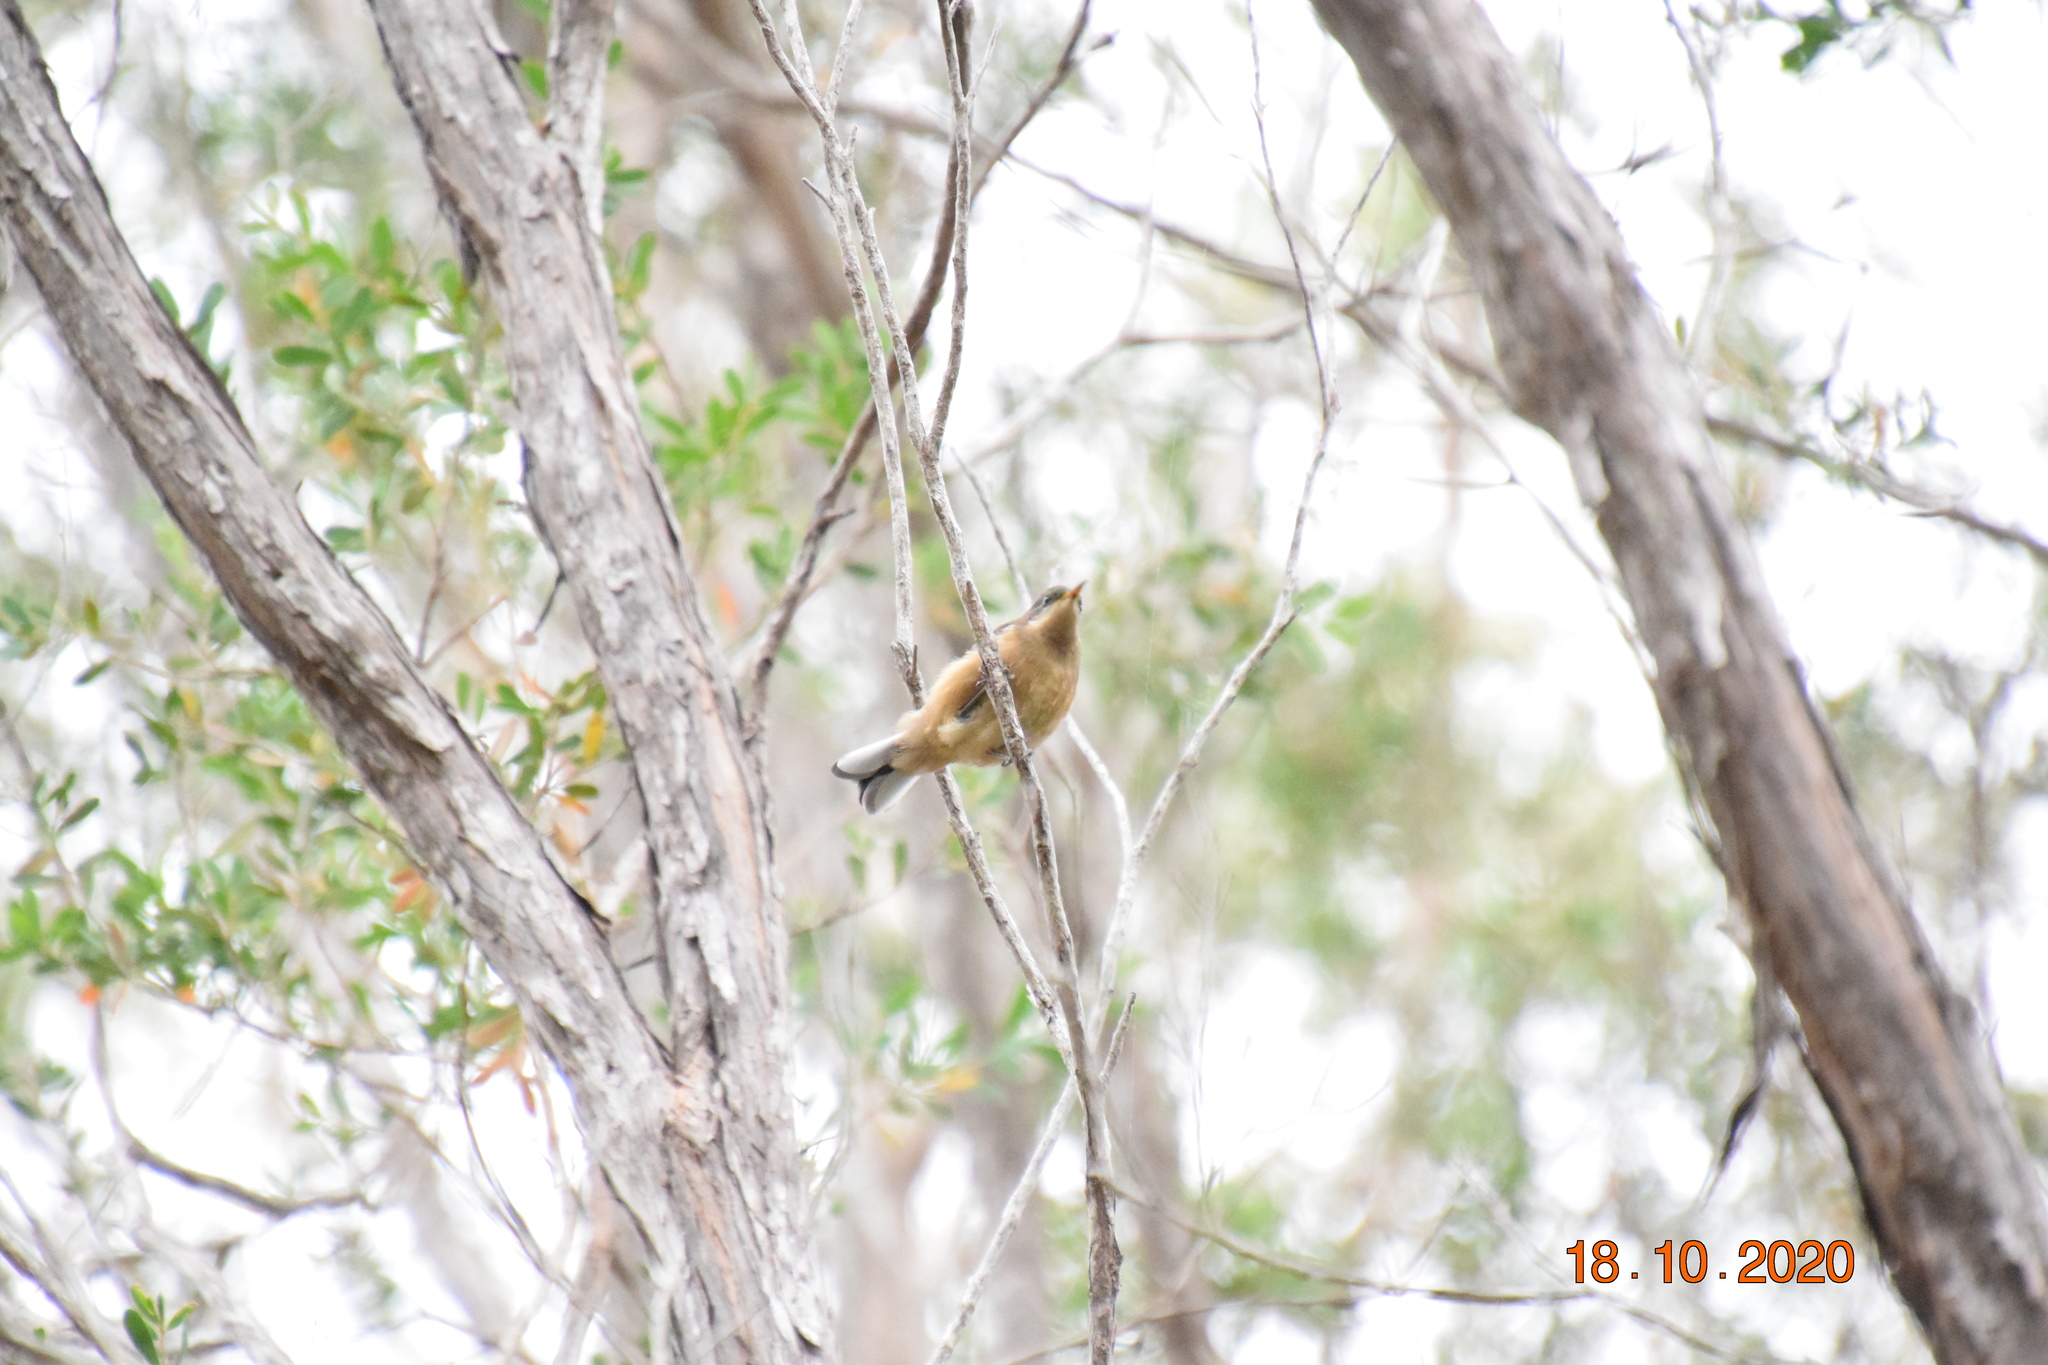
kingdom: Animalia
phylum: Chordata
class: Aves
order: Passeriformes
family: Meliphagidae
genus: Acanthorhynchus
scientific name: Acanthorhynchus tenuirostris
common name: Eastern spinebill
